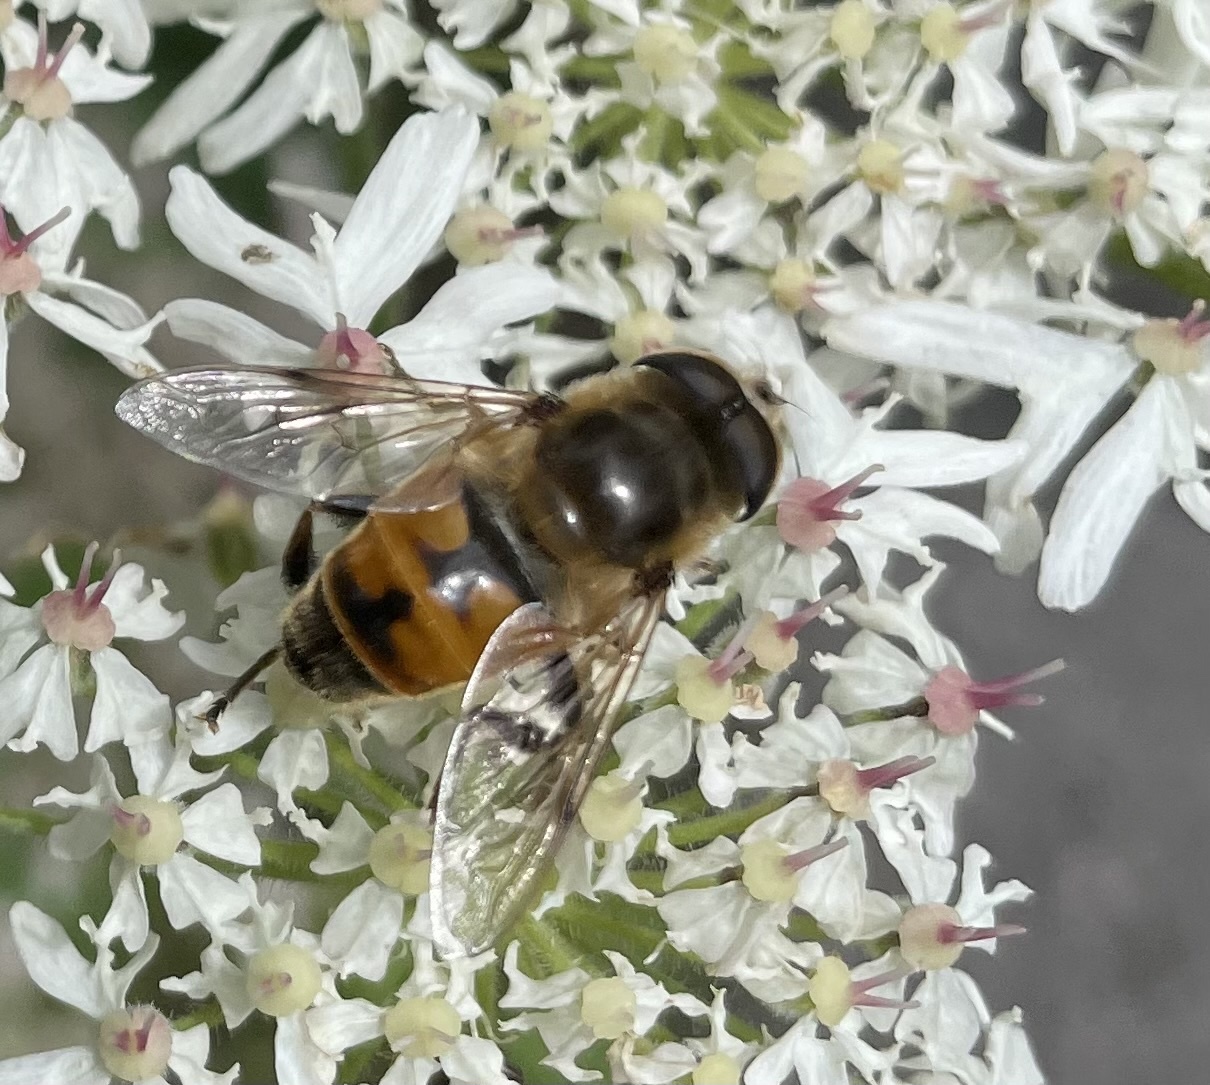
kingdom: Animalia
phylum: Arthropoda
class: Insecta
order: Diptera
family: Syrphidae
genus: Eristalis
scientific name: Eristalis tenax
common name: Drone fly
